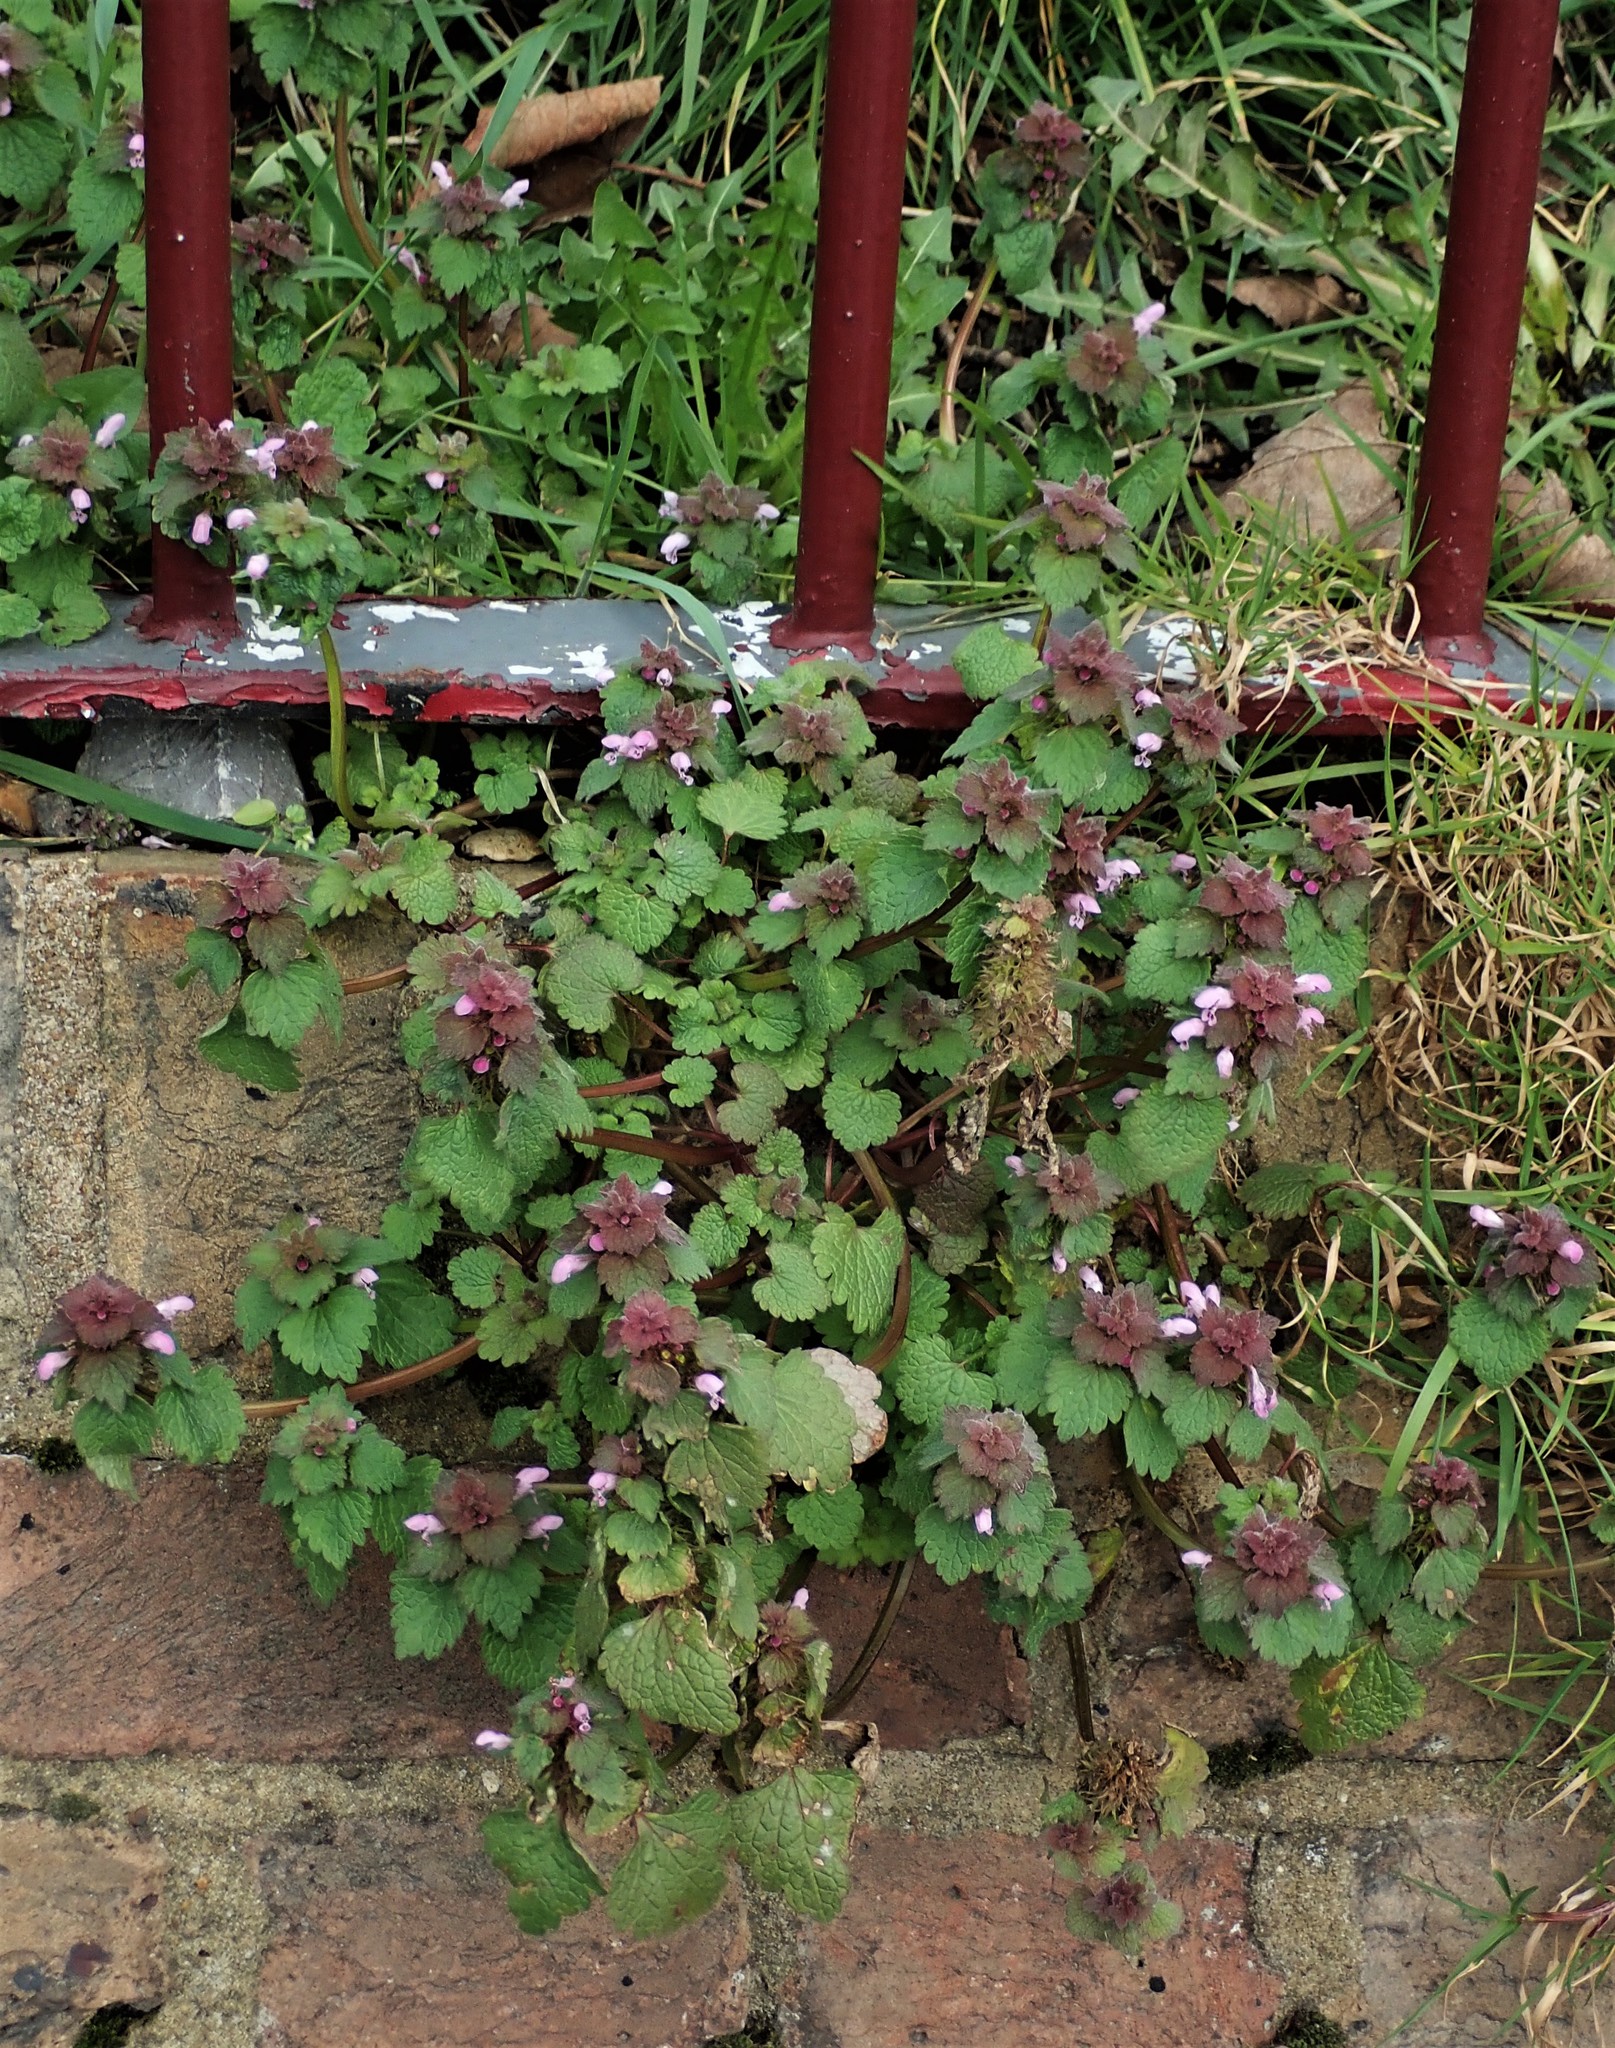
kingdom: Plantae
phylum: Tracheophyta
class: Magnoliopsida
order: Lamiales
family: Lamiaceae
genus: Lamium
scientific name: Lamium purpureum
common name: Red dead-nettle
